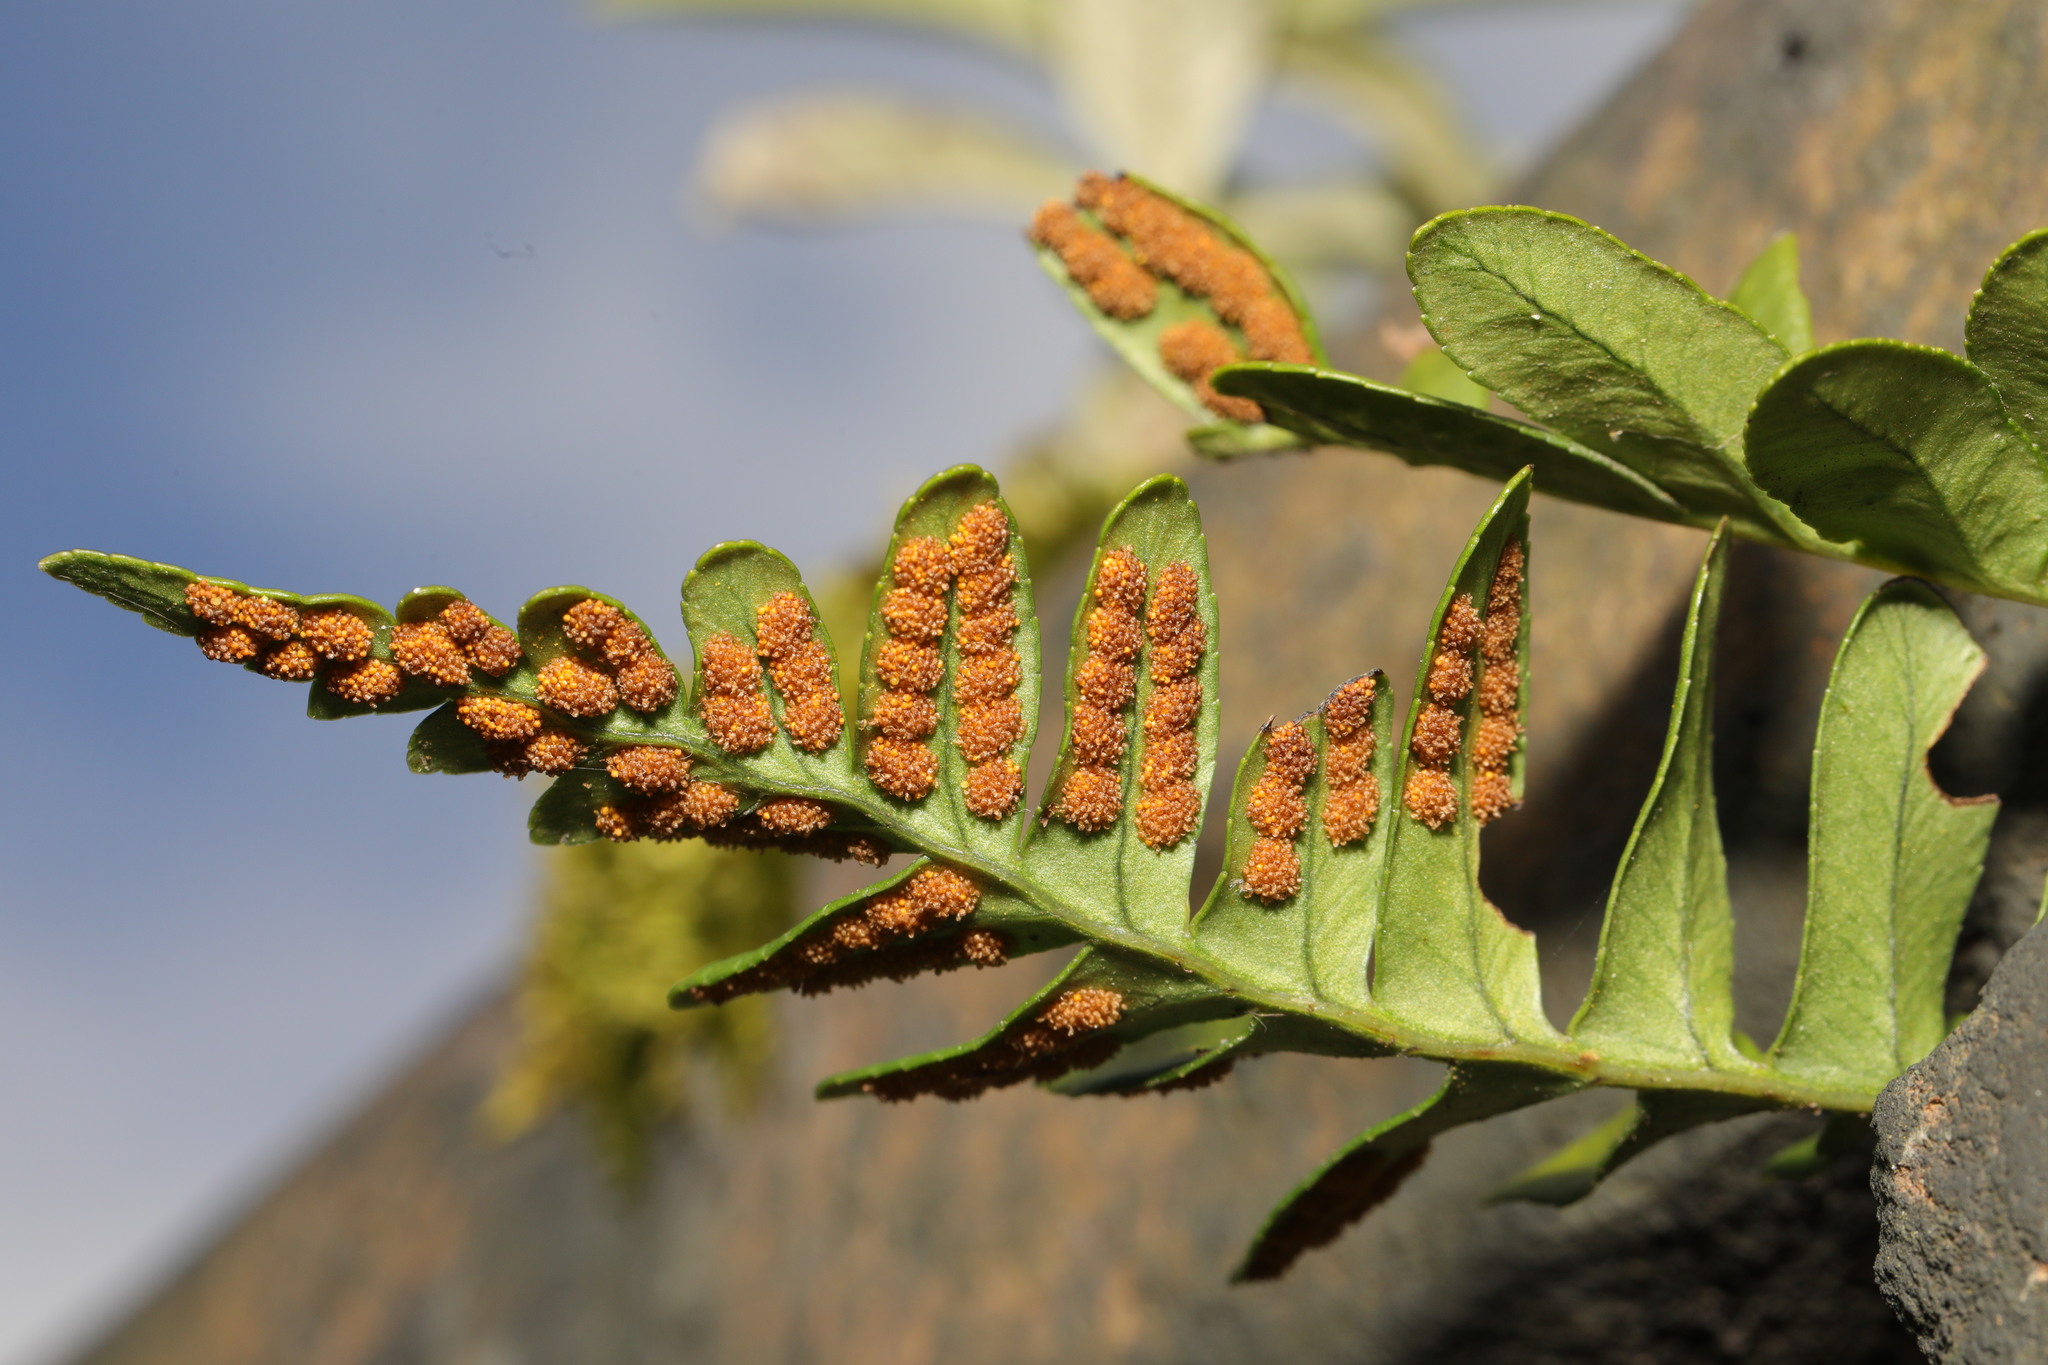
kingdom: Plantae
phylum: Tracheophyta
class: Polypodiopsida
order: Polypodiales
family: Polypodiaceae
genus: Polypodium
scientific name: Polypodium vulgare
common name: Common polypody
